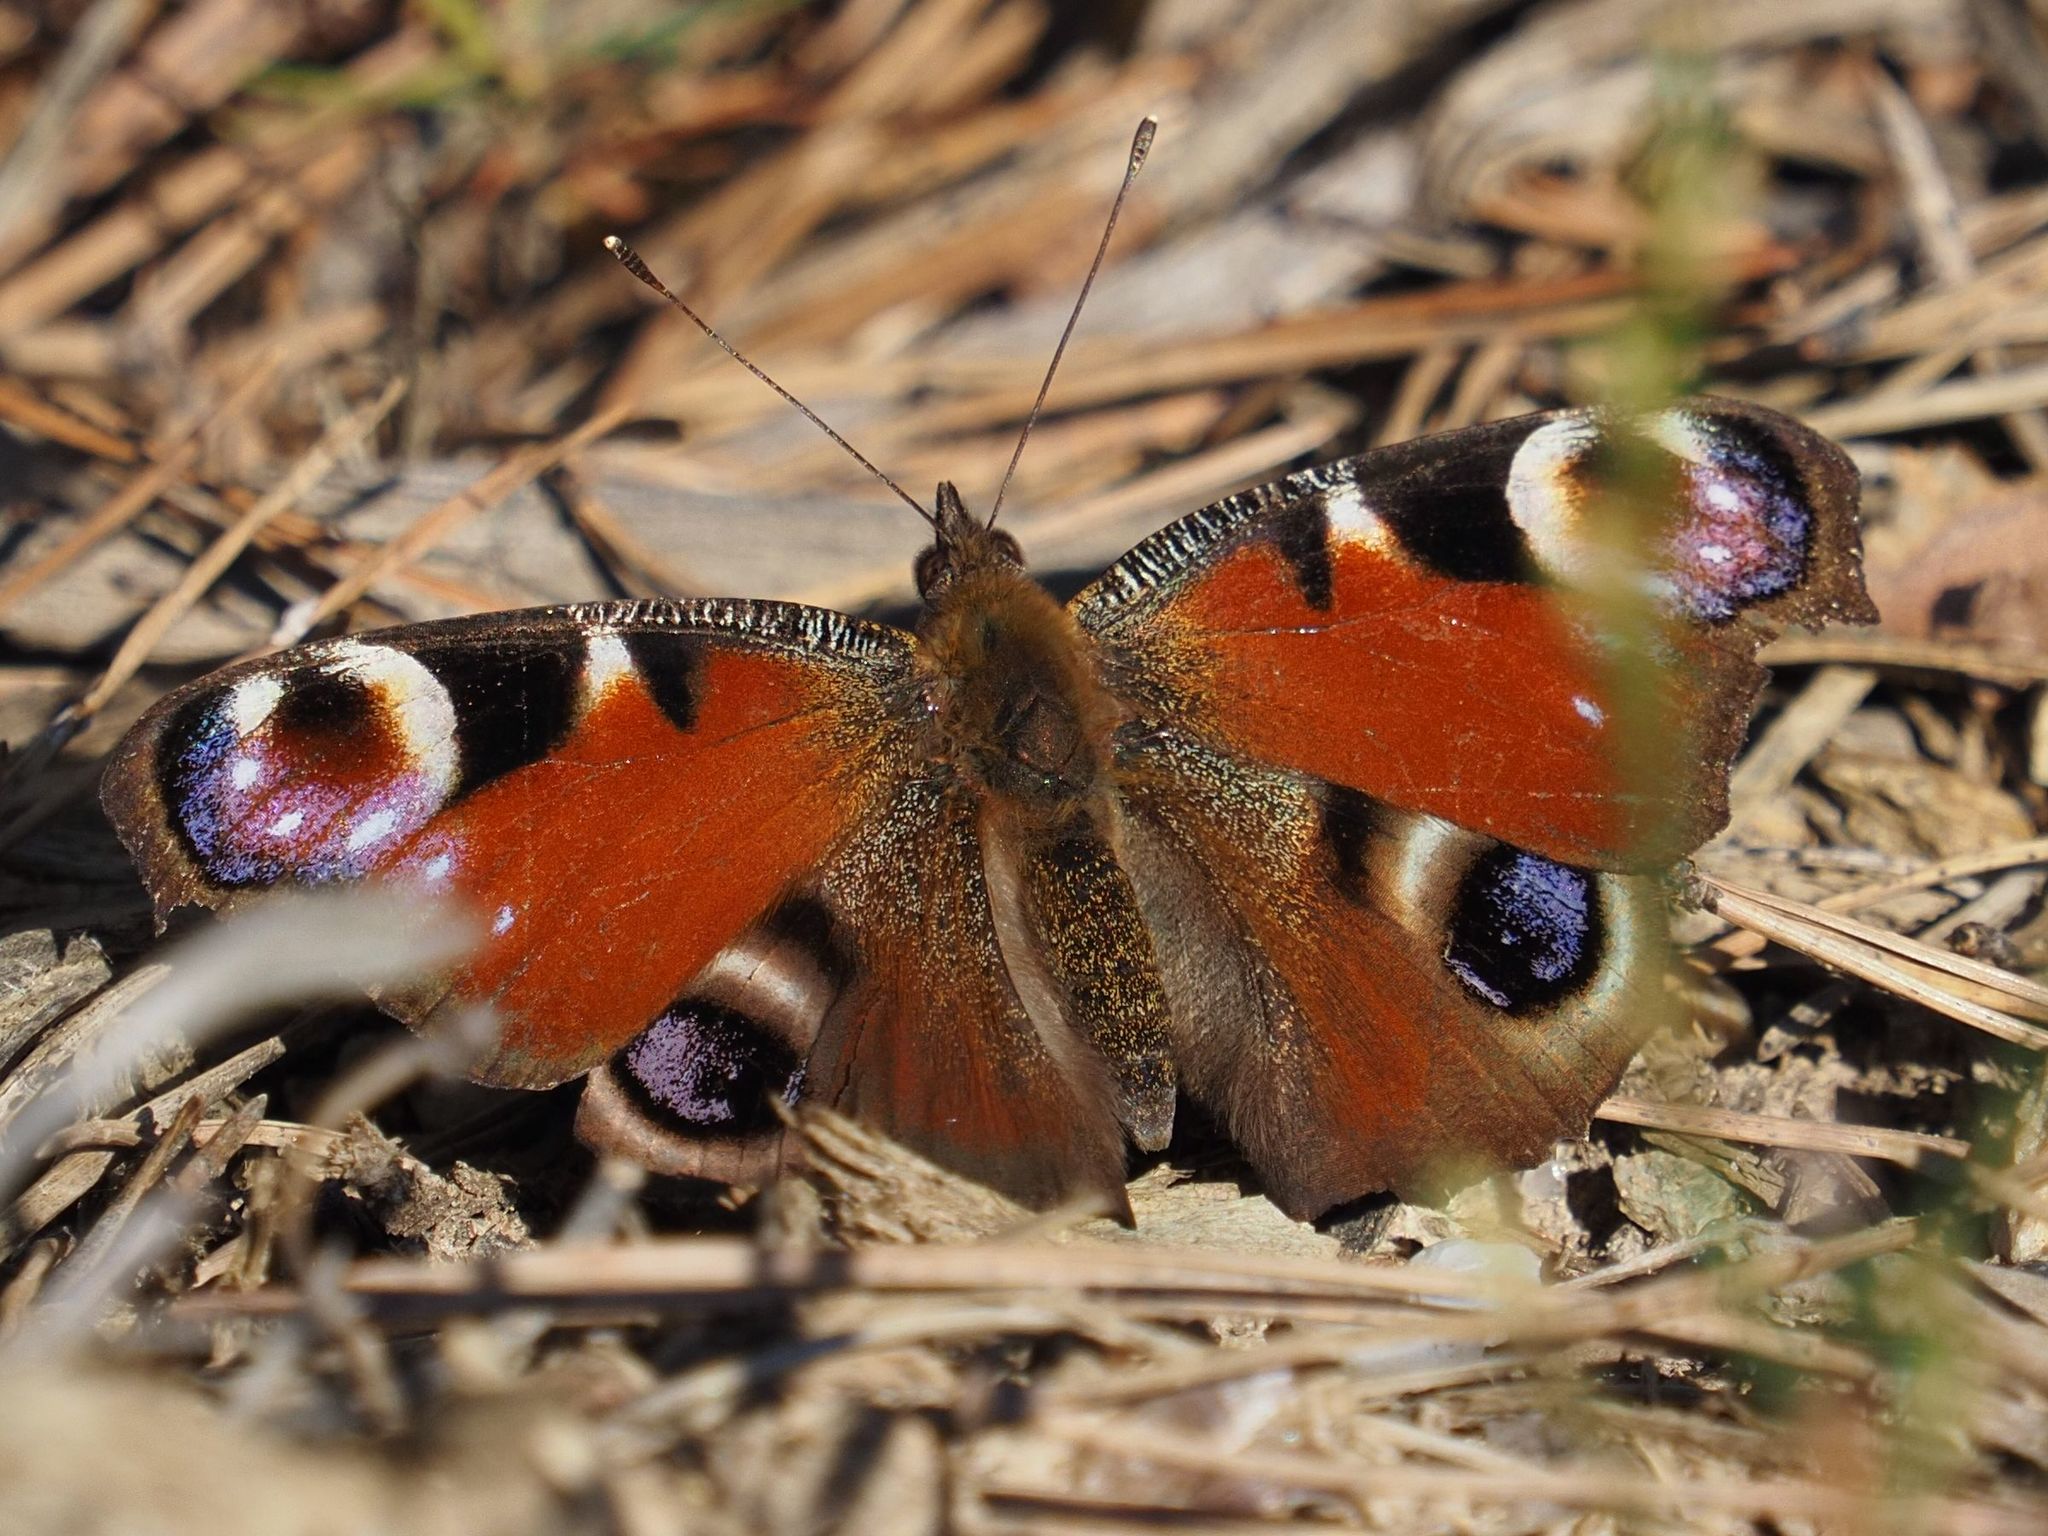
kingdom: Animalia
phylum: Arthropoda
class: Insecta
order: Lepidoptera
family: Nymphalidae
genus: Aglais
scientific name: Aglais io
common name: Peacock
